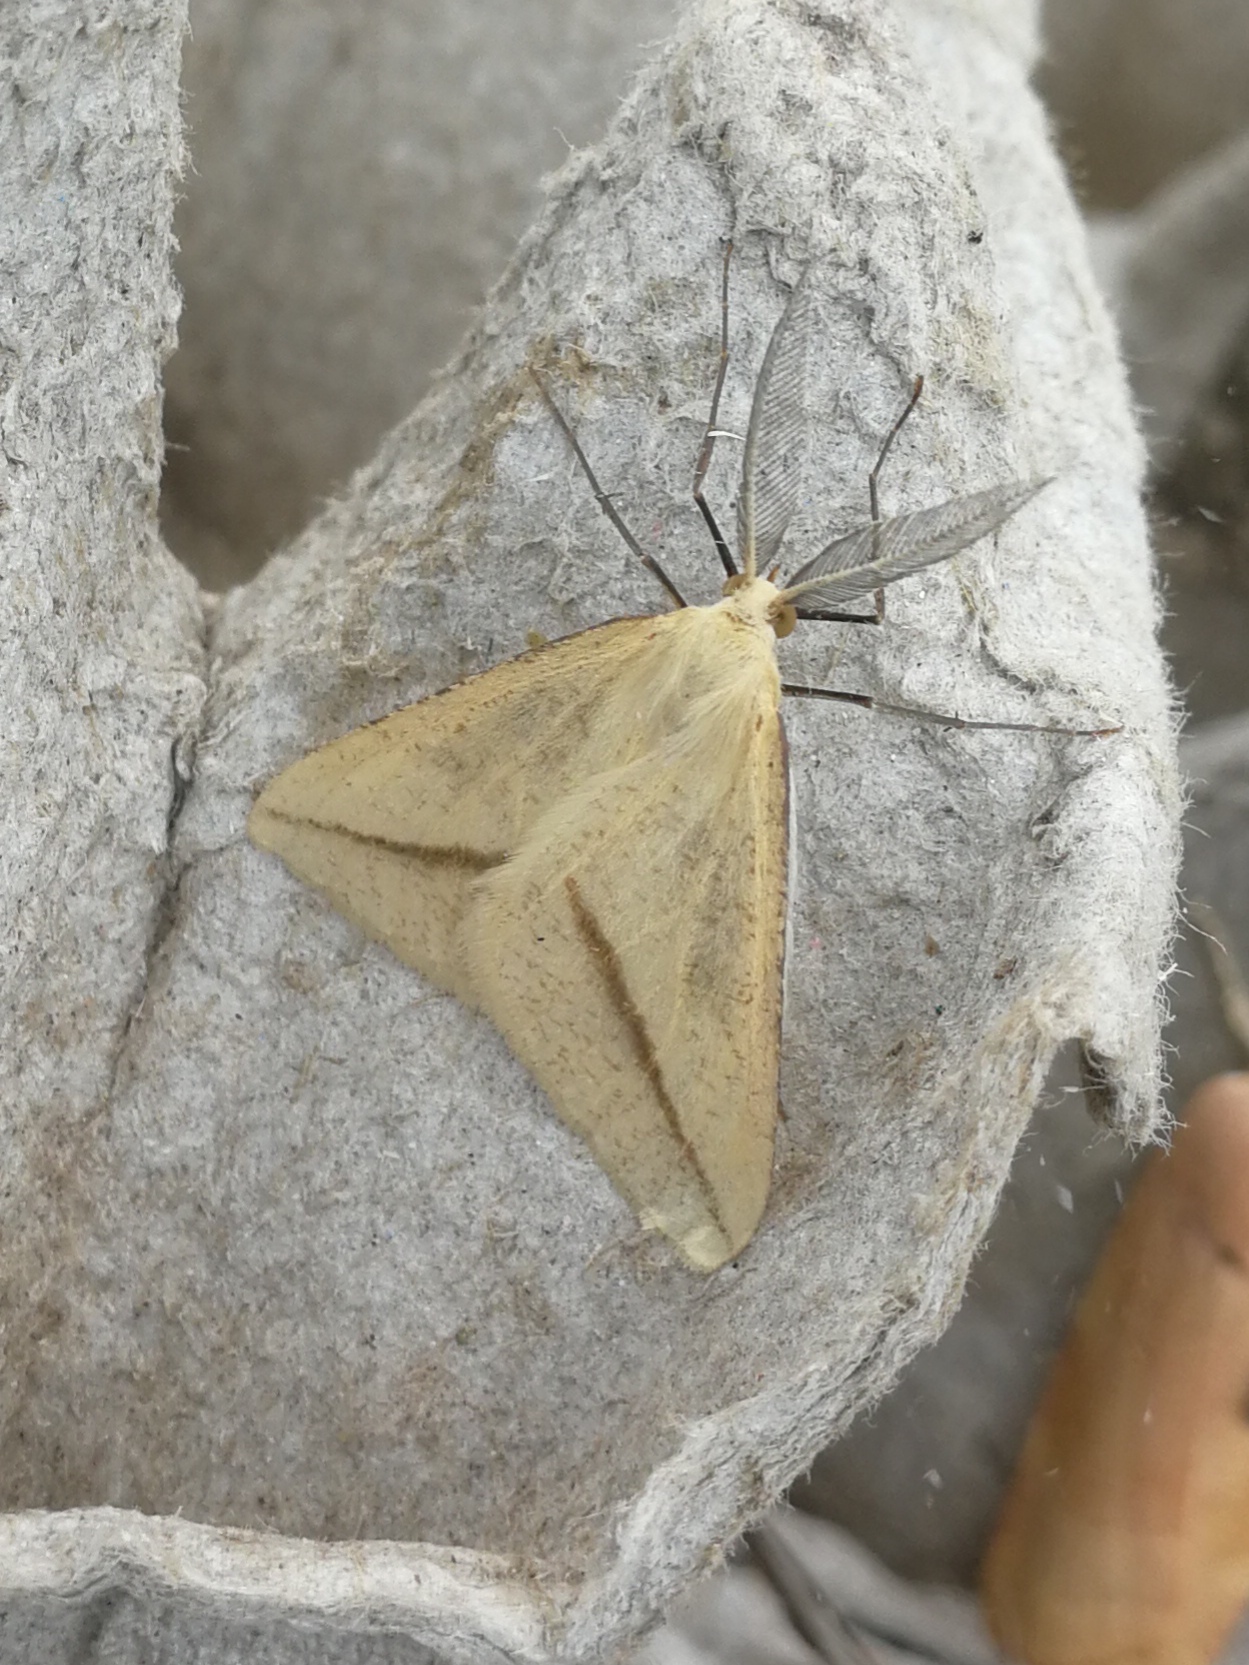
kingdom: Animalia
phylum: Arthropoda
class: Insecta
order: Lepidoptera
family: Geometridae
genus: Aspitates
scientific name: Aspitates gilvaria
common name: Straw belle
